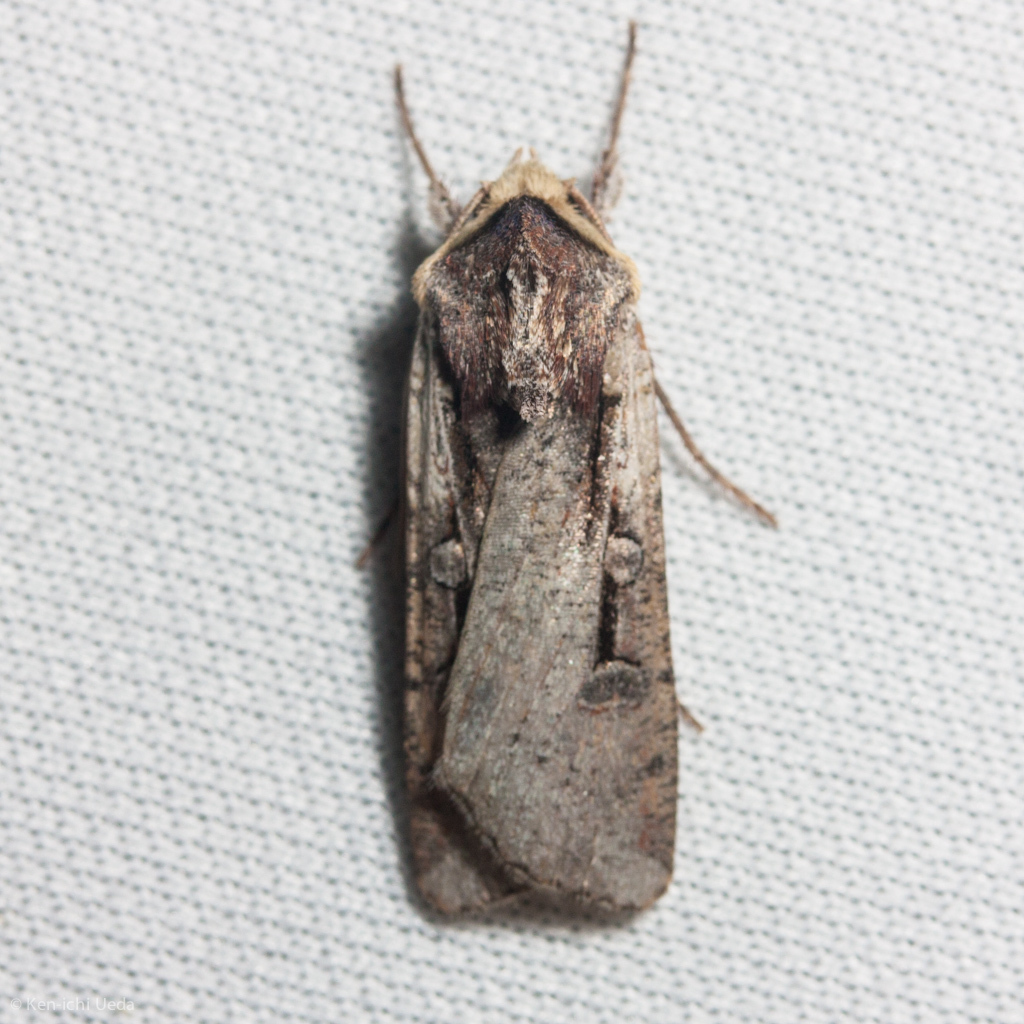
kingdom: Animalia
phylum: Arthropoda
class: Insecta
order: Lepidoptera
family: Noctuidae
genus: Hemieuxoa
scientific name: Hemieuxoa rudens
